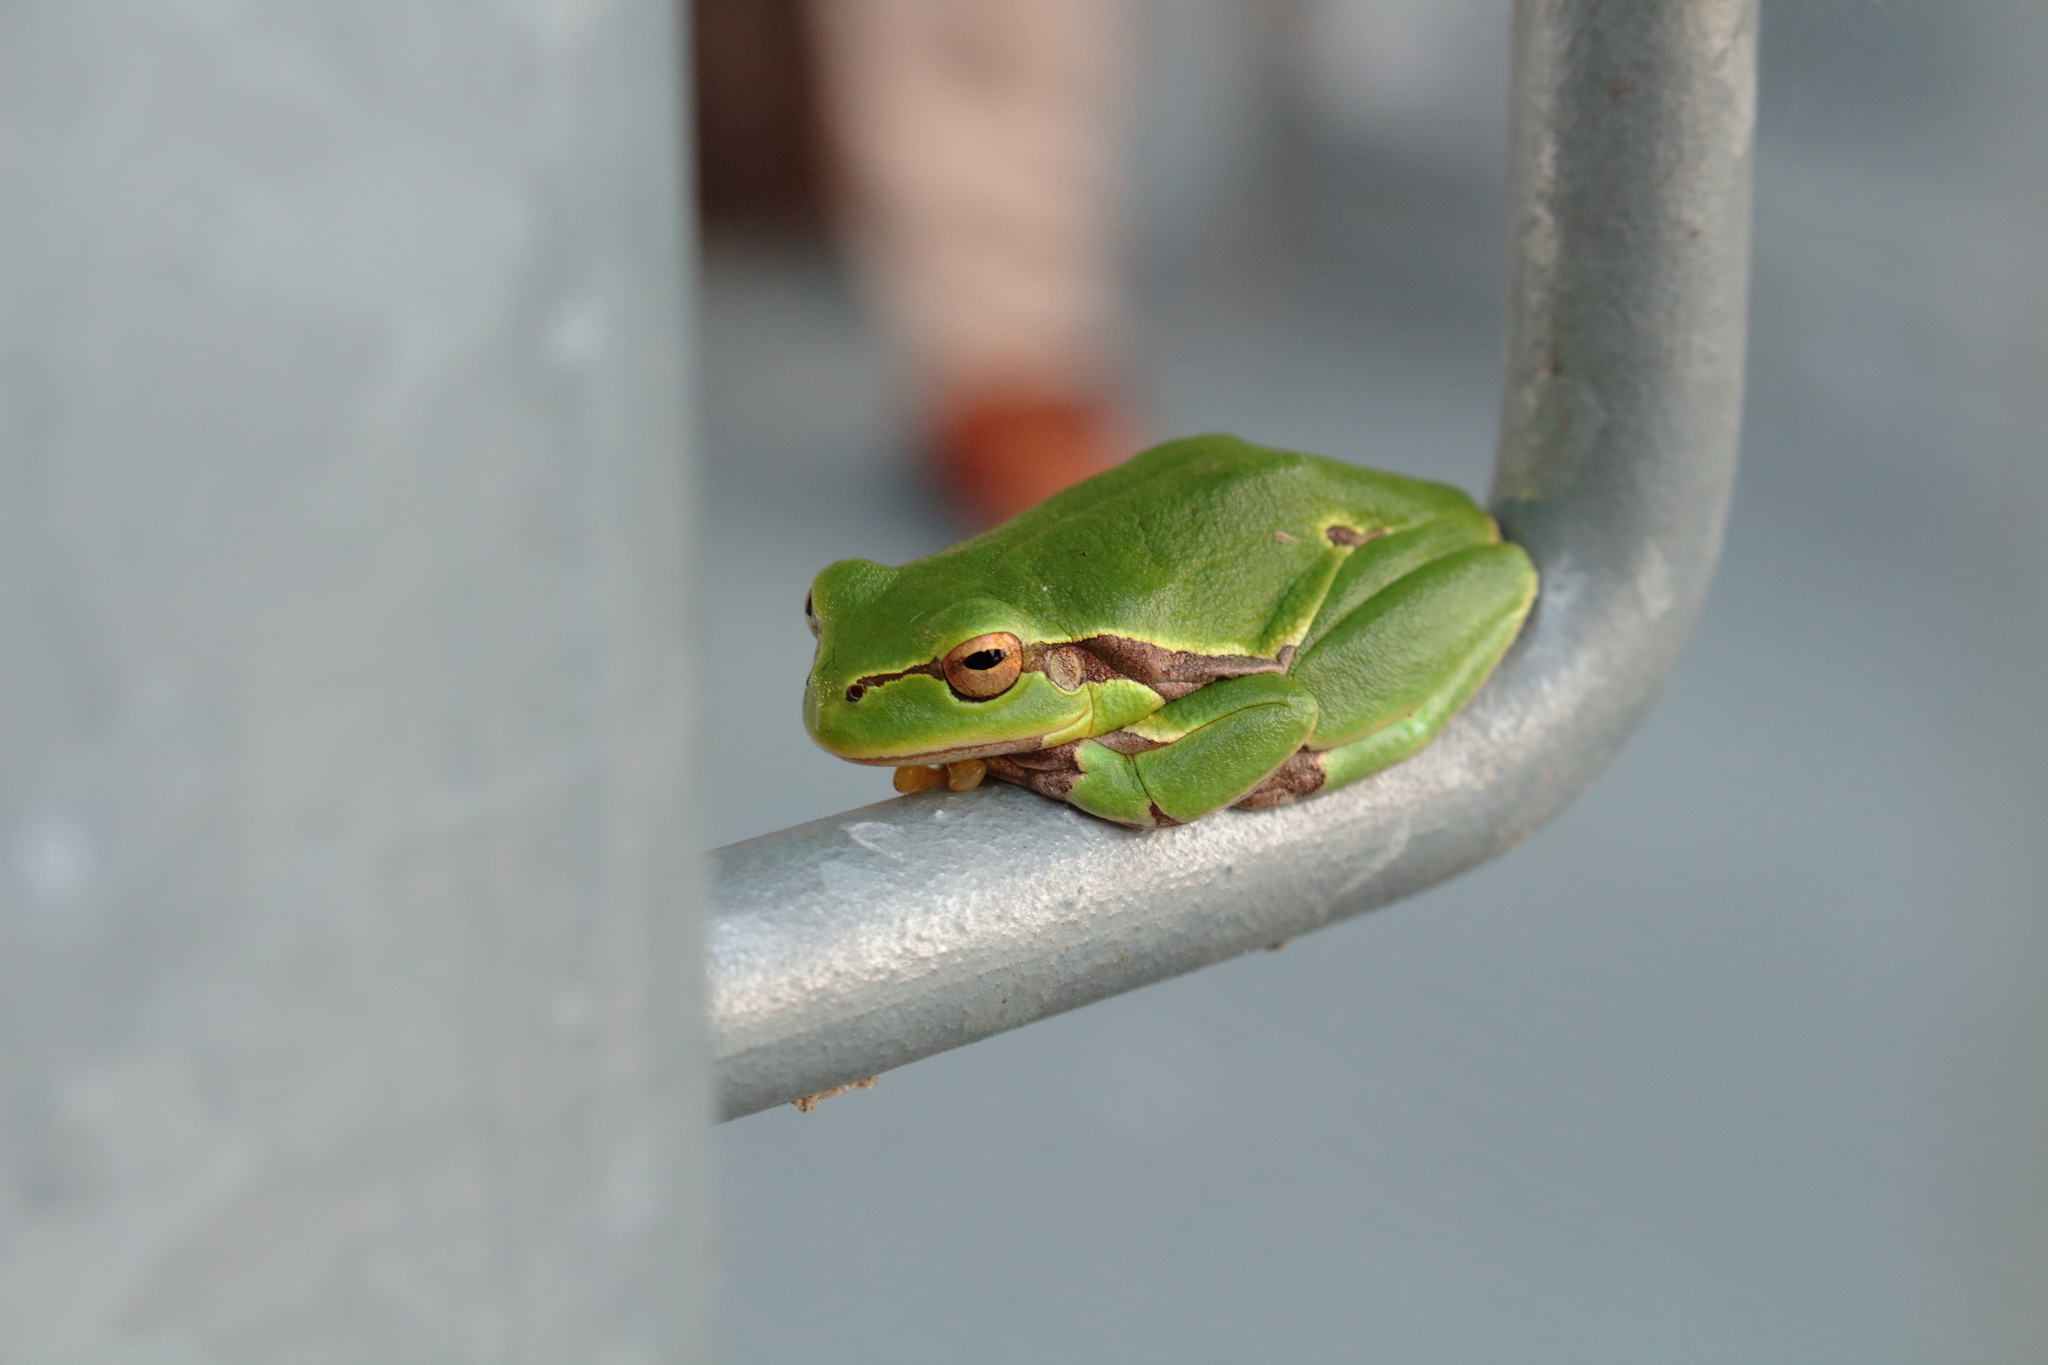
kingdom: Animalia
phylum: Chordata
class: Amphibia
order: Anura
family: Hylidae
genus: Hyla
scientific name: Hyla arborea
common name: Common tree frog
